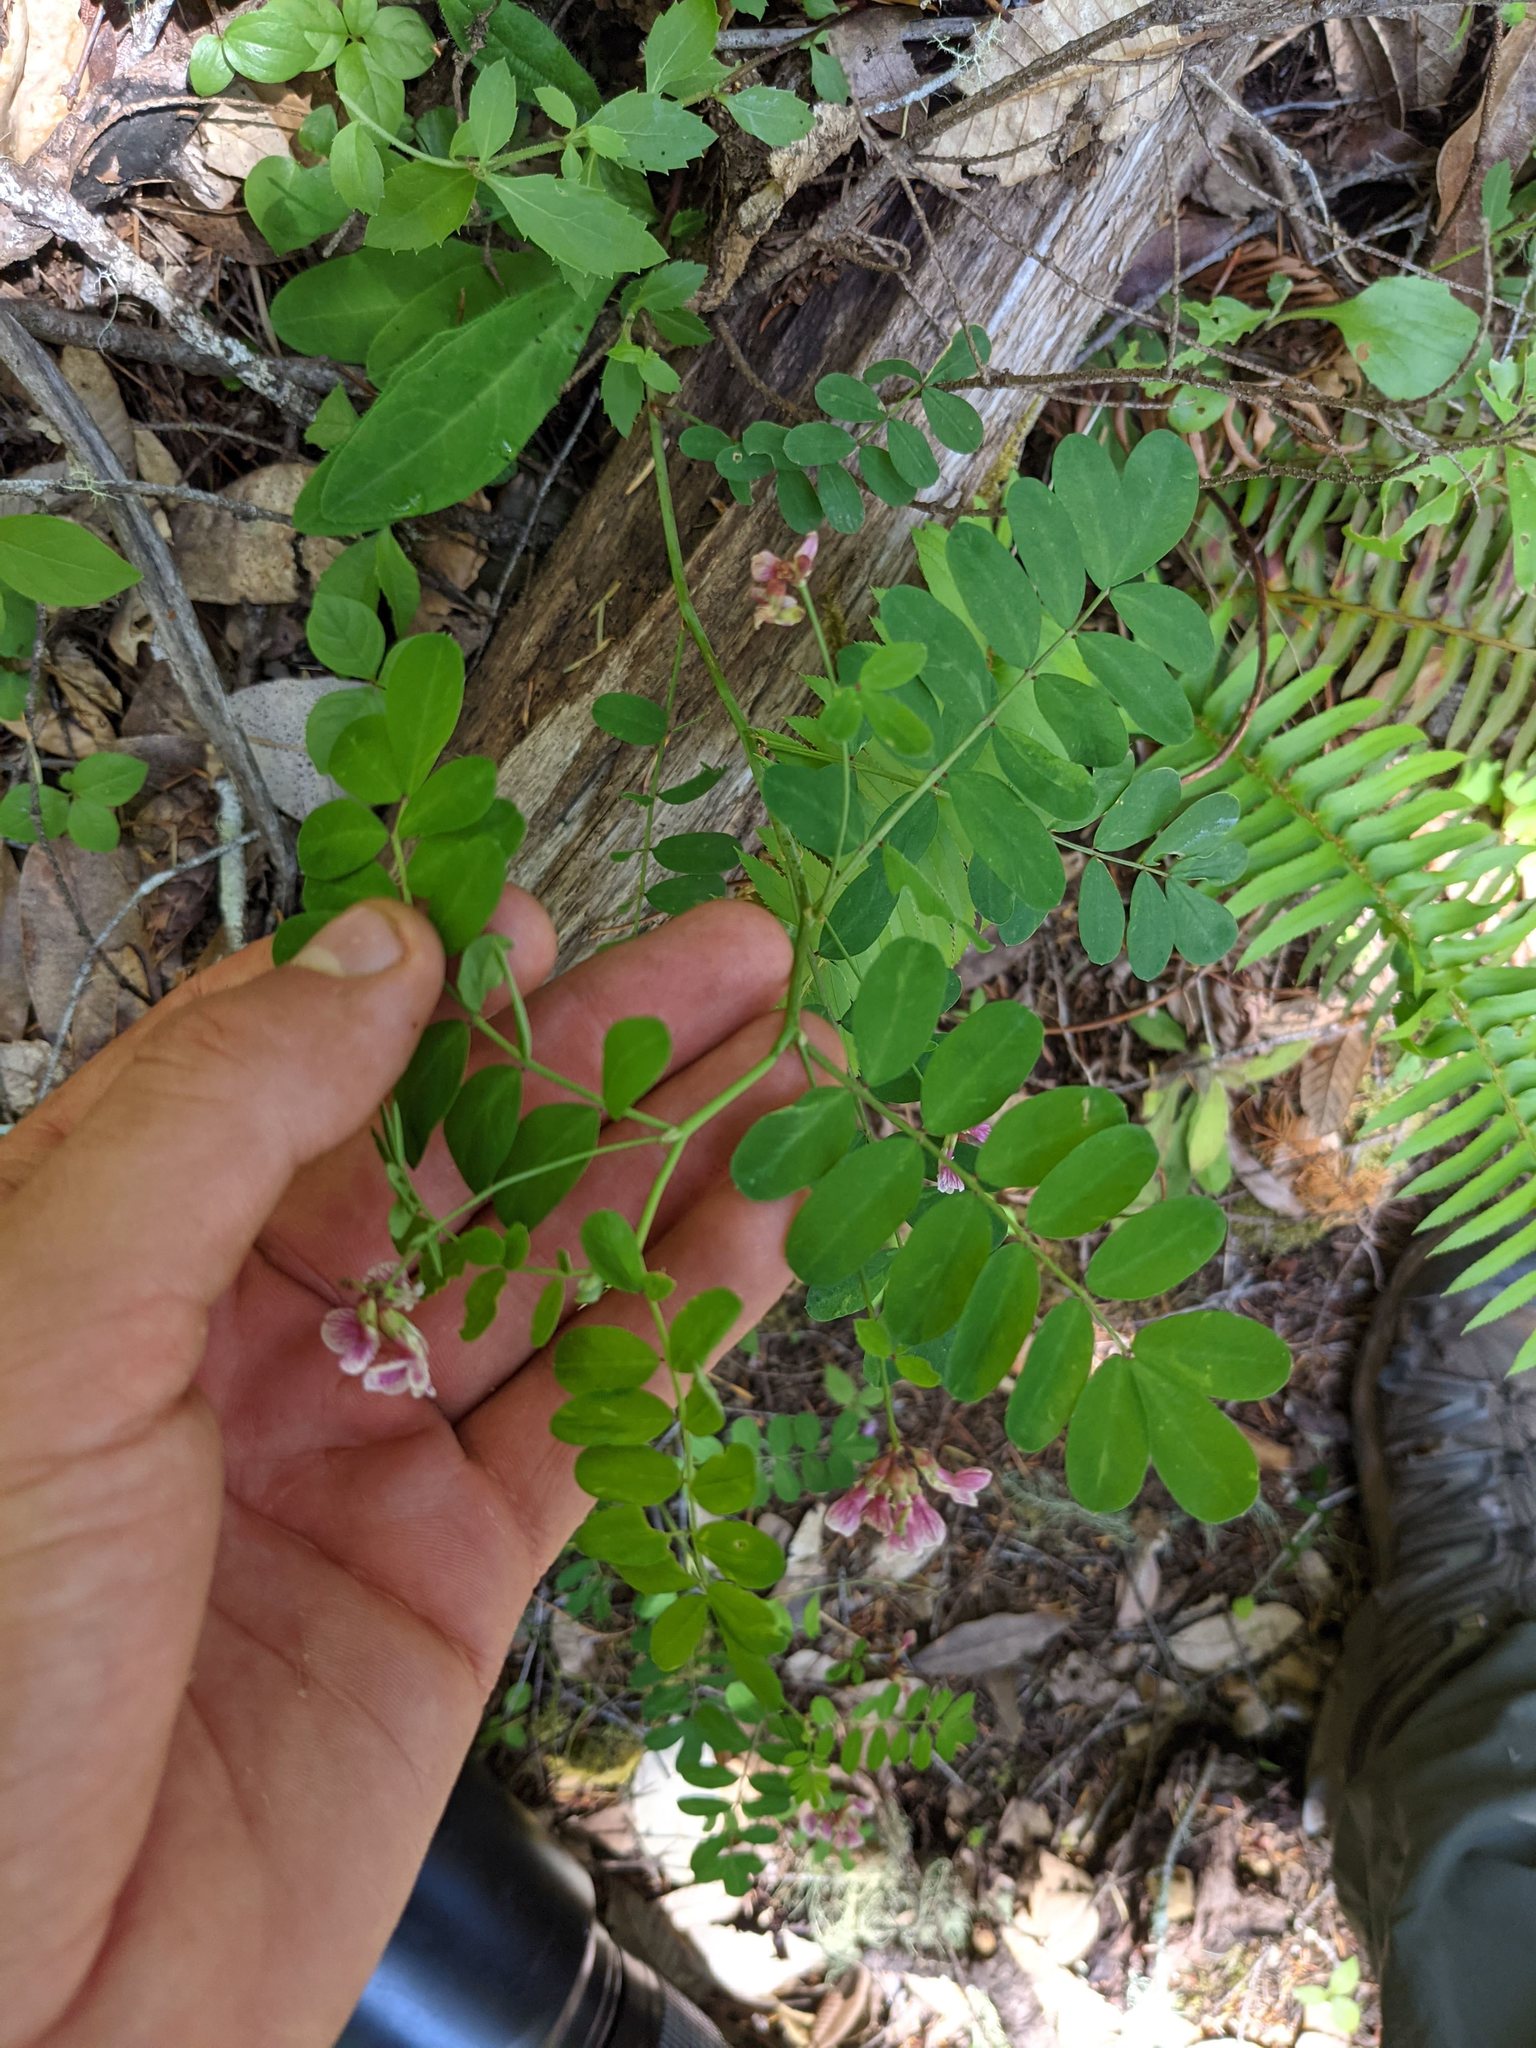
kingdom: Plantae
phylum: Tracheophyta
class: Magnoliopsida
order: Fabales
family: Fabaceae
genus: Hosackia
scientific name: Hosackia rosea
